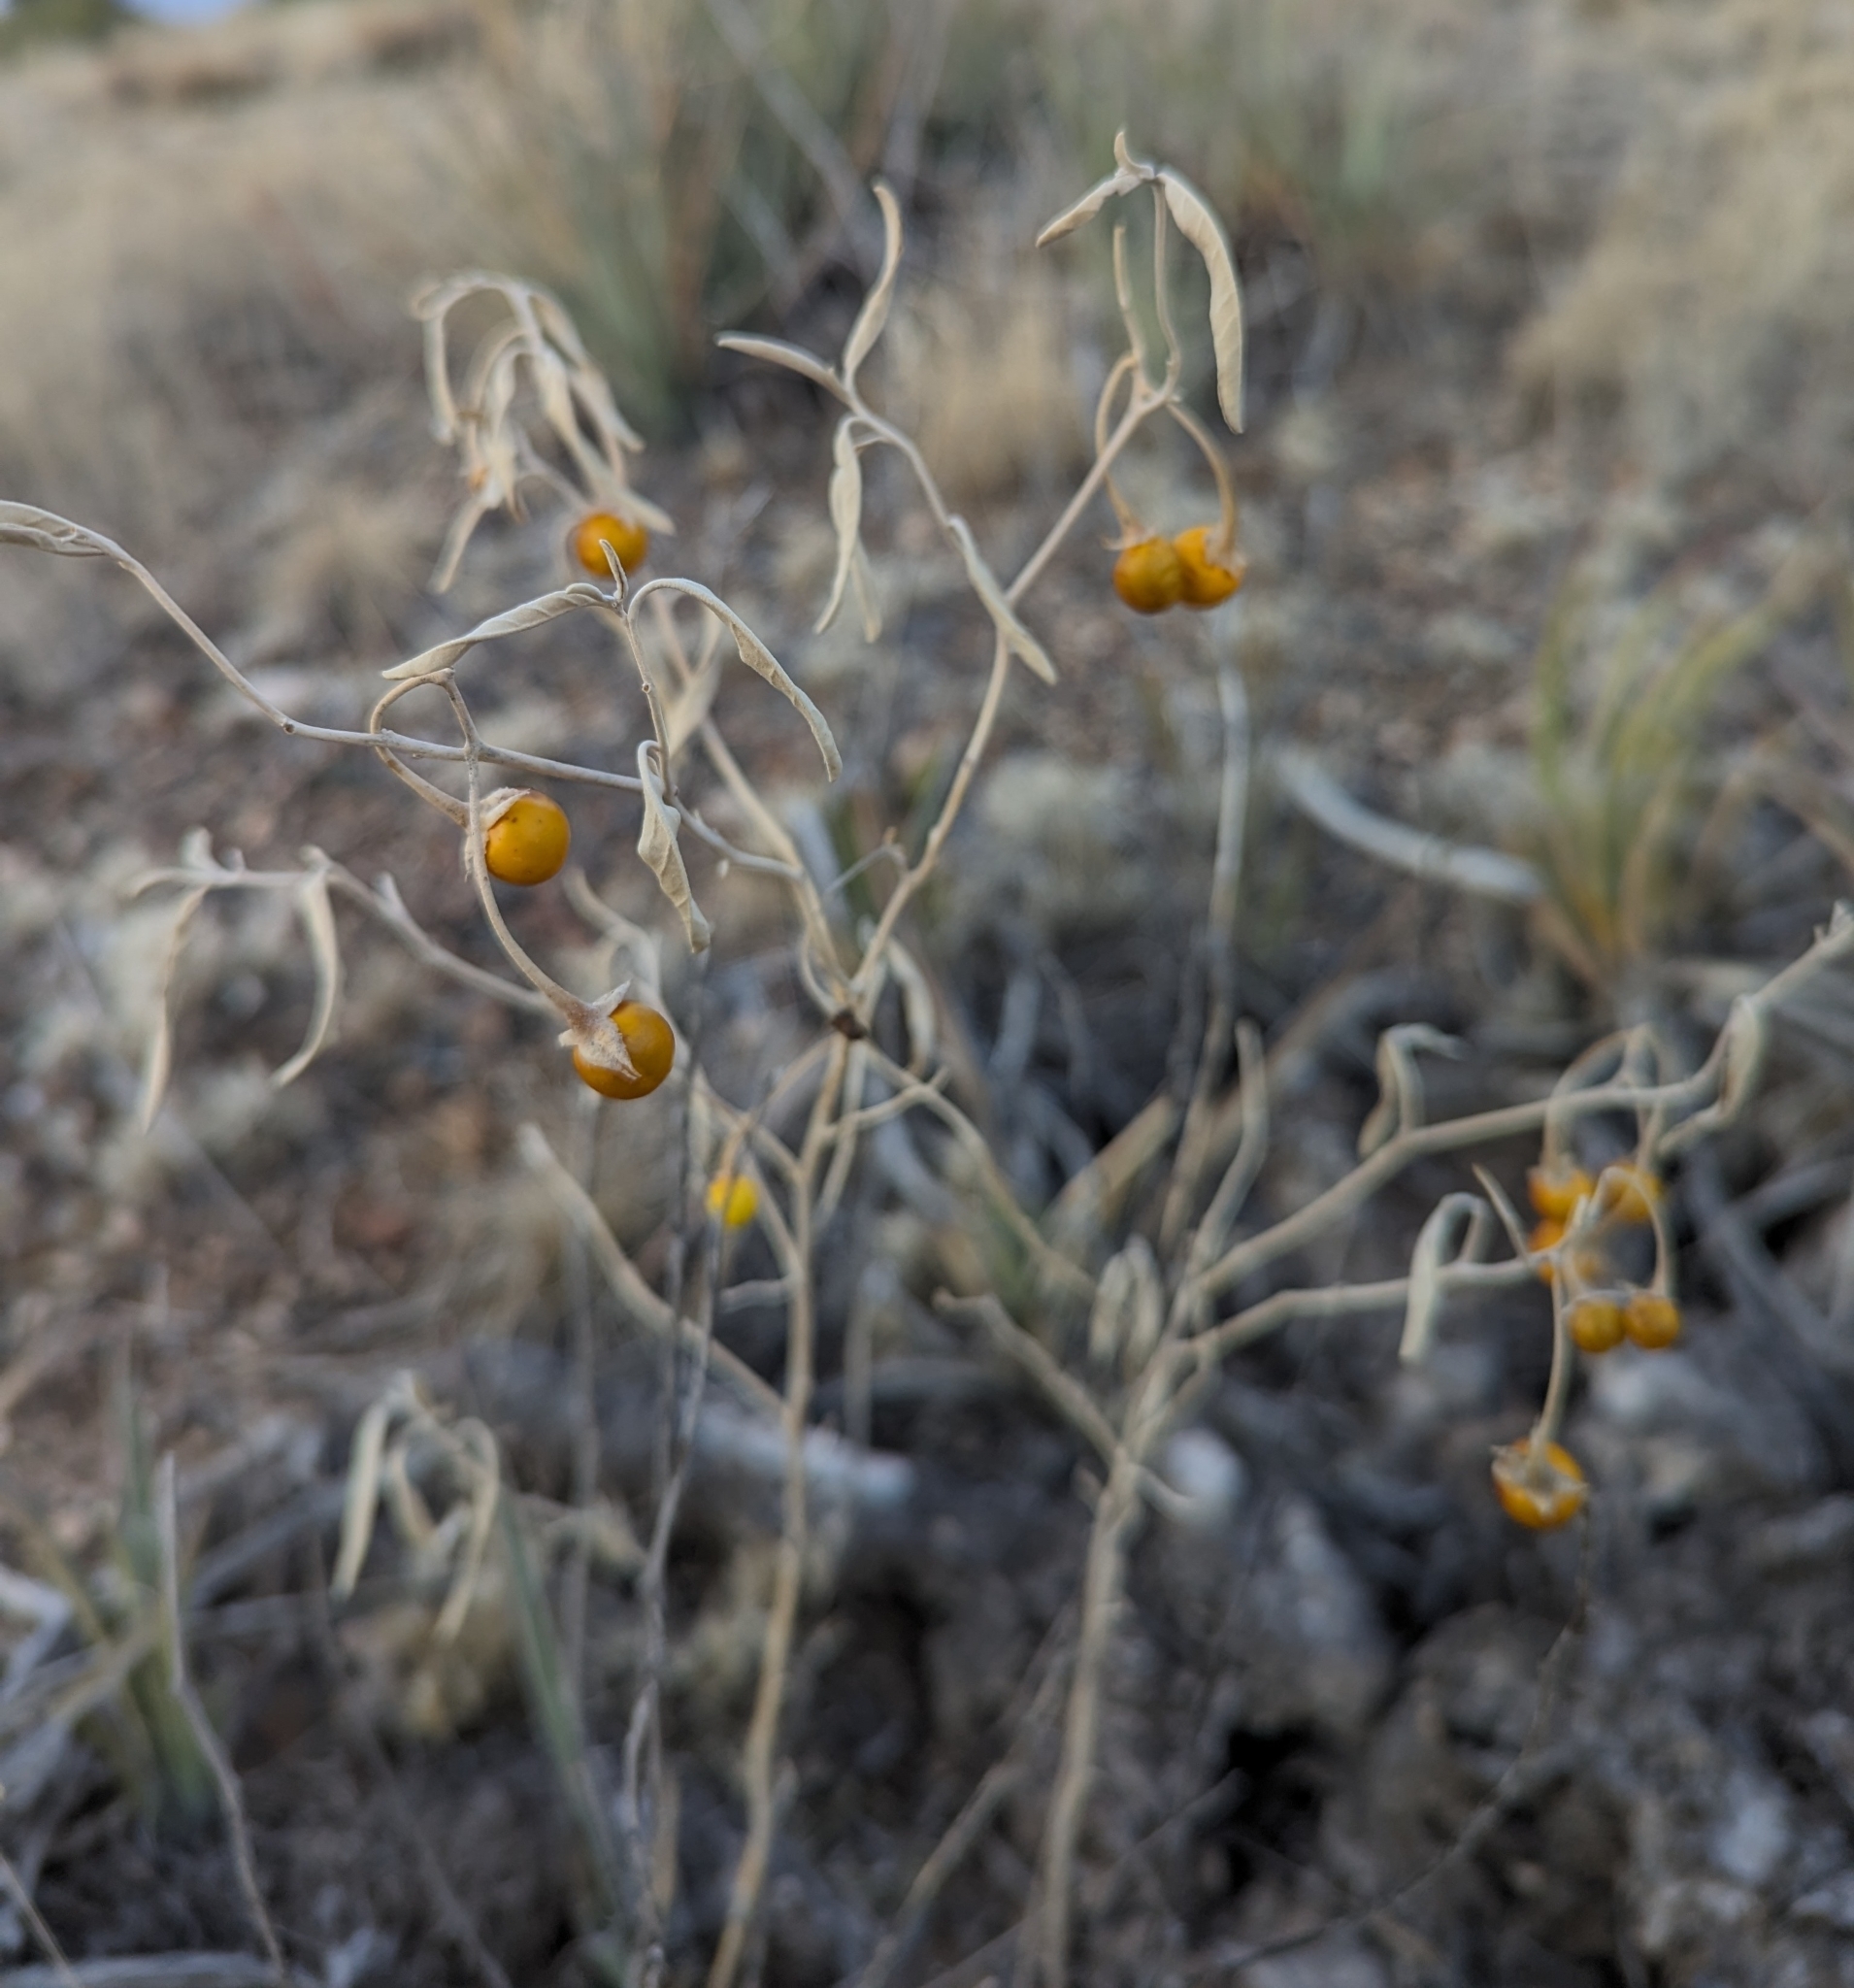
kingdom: Plantae
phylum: Tracheophyta
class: Magnoliopsida
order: Solanales
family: Solanaceae
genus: Solanum
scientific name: Solanum elaeagnifolium
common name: Silverleaf nightshade
